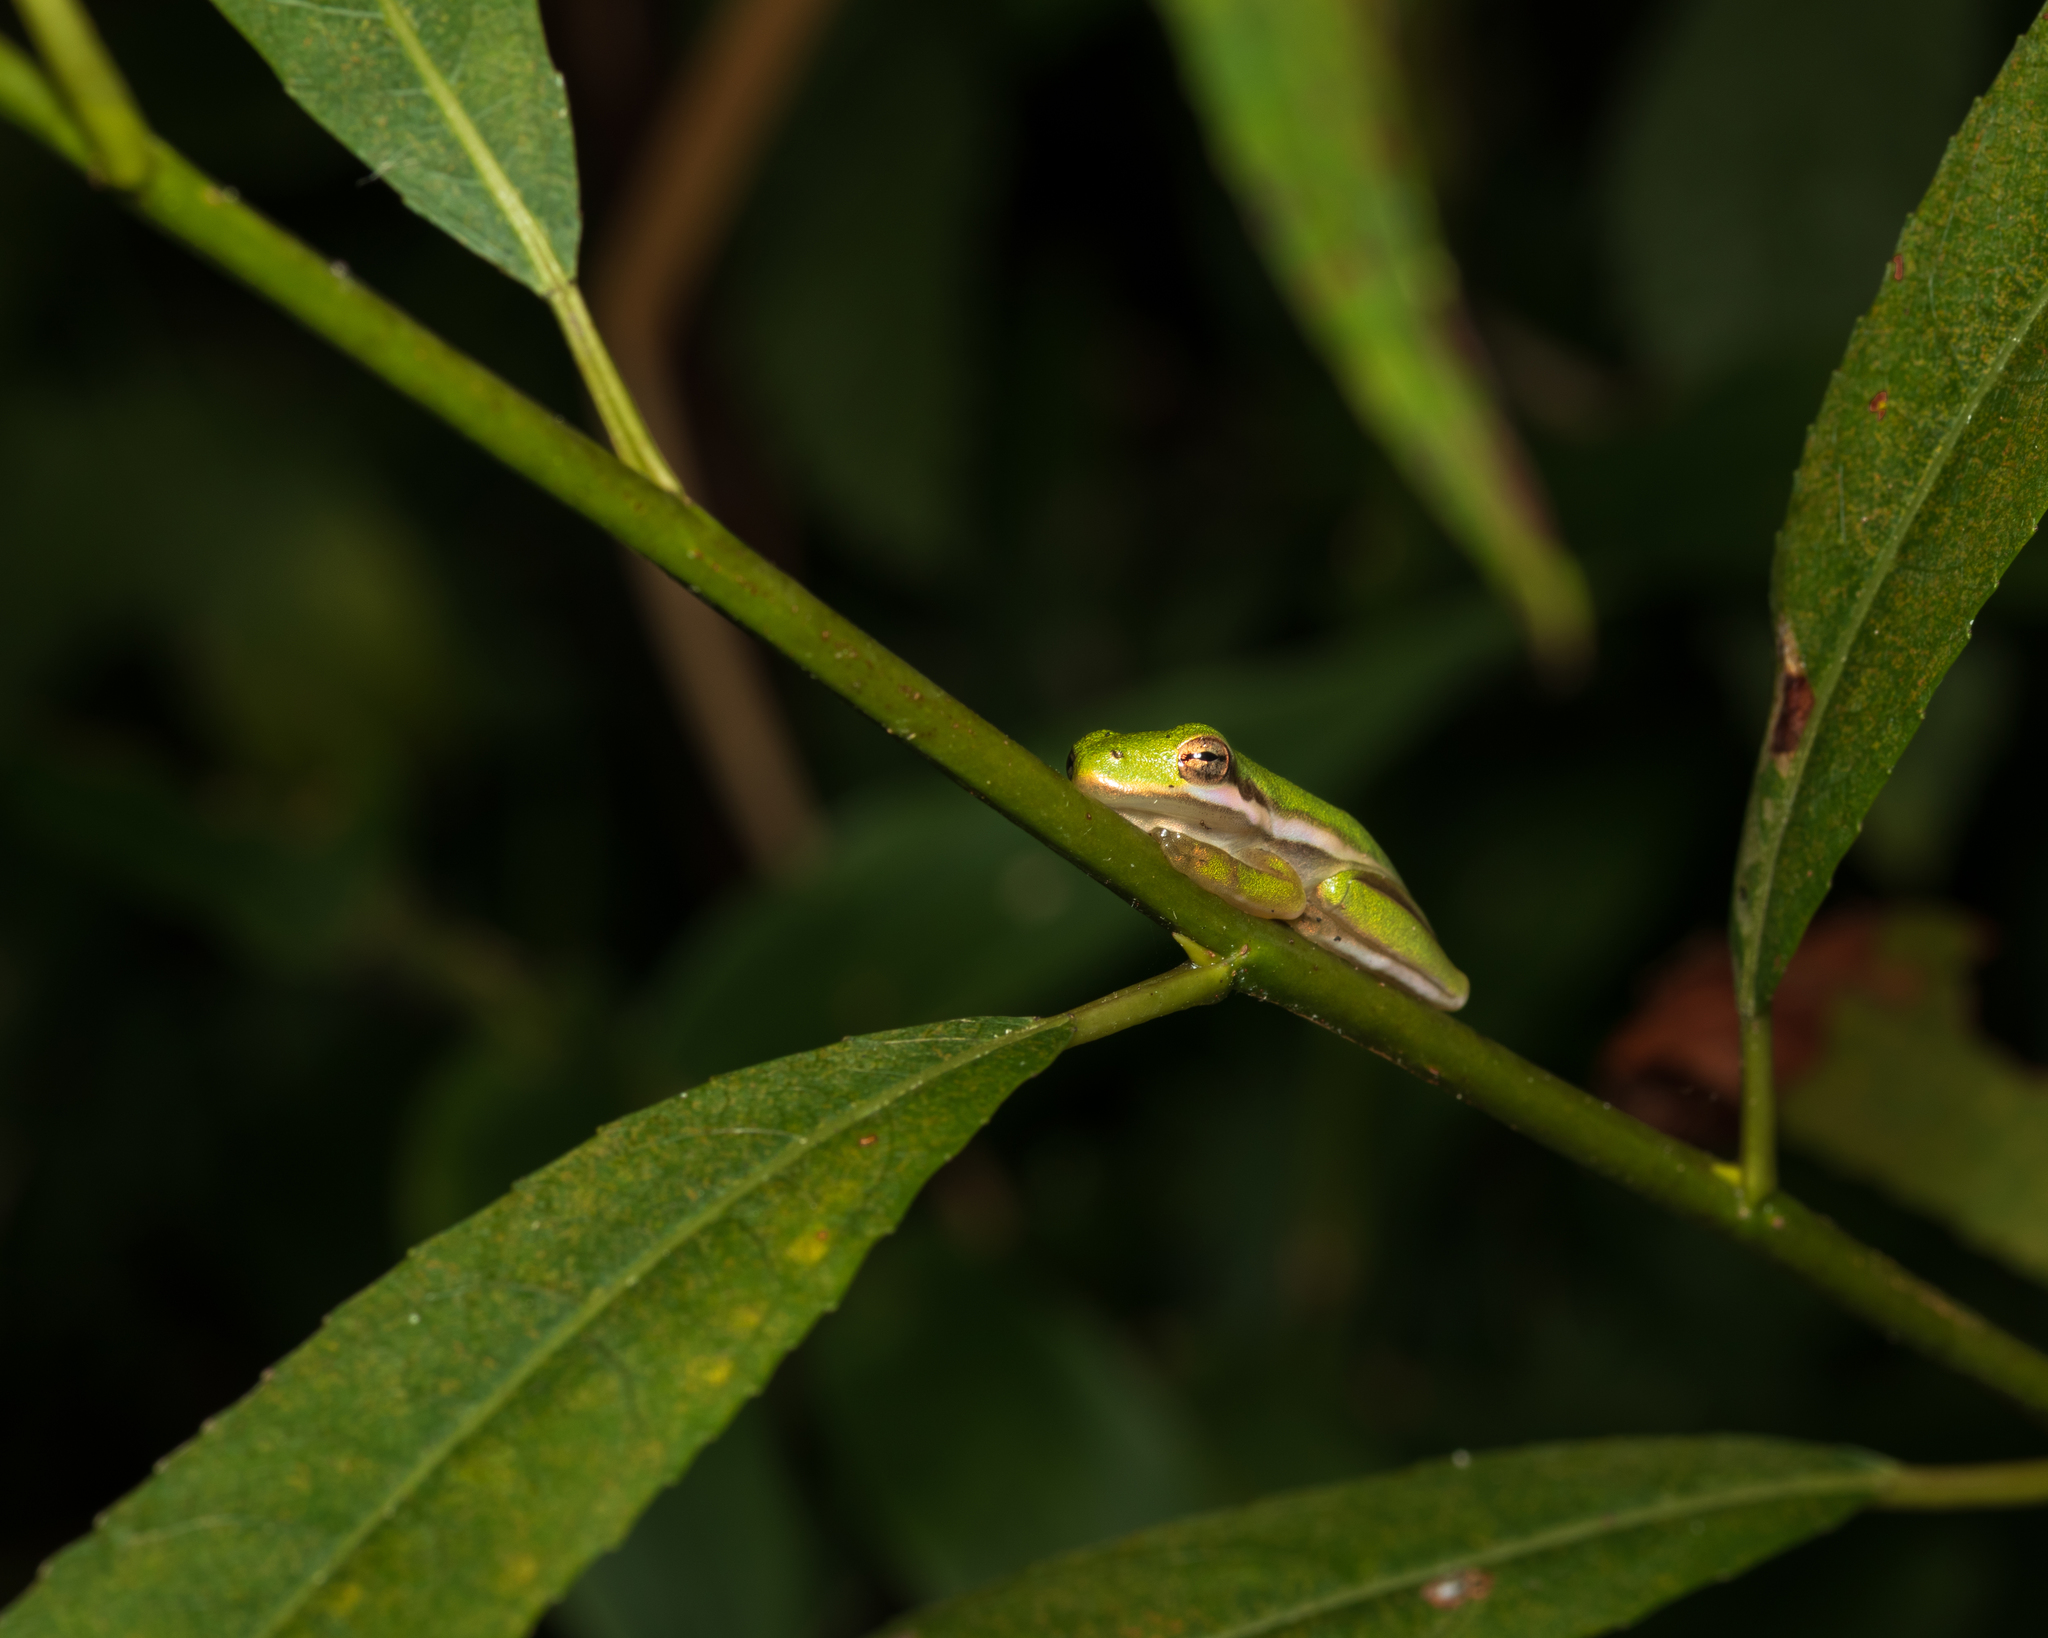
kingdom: Animalia
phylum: Chordata
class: Amphibia
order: Anura
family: Hylidae
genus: Dryophytes
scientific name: Dryophytes cinereus
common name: Green treefrog
